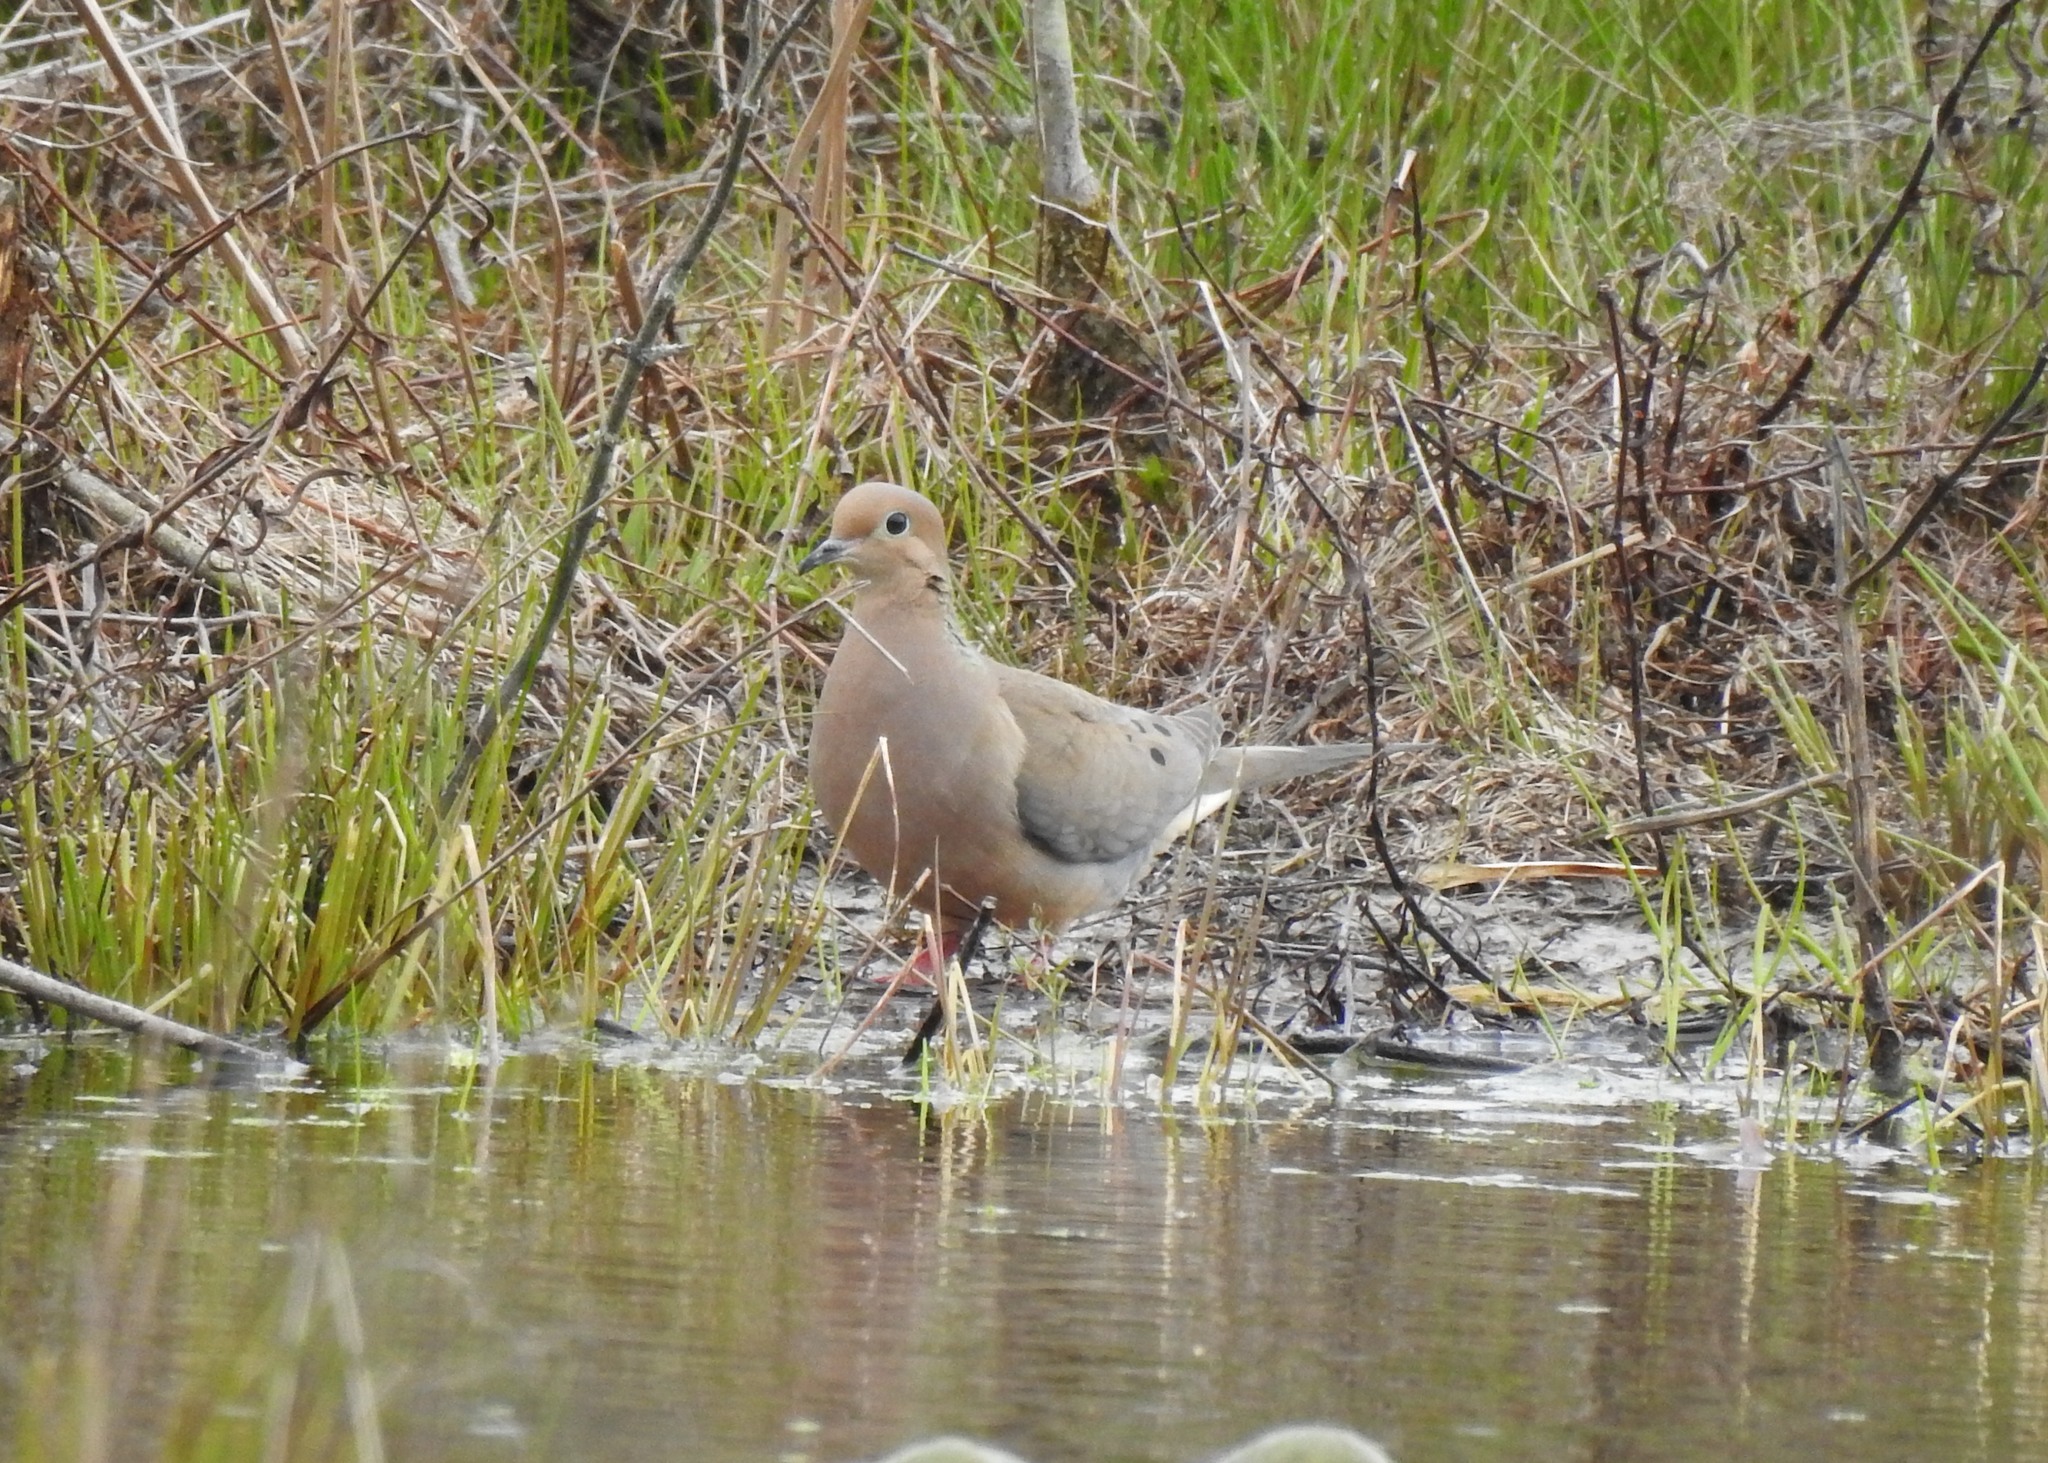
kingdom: Animalia
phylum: Chordata
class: Aves
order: Columbiformes
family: Columbidae
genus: Zenaida
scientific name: Zenaida macroura
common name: Mourning dove
